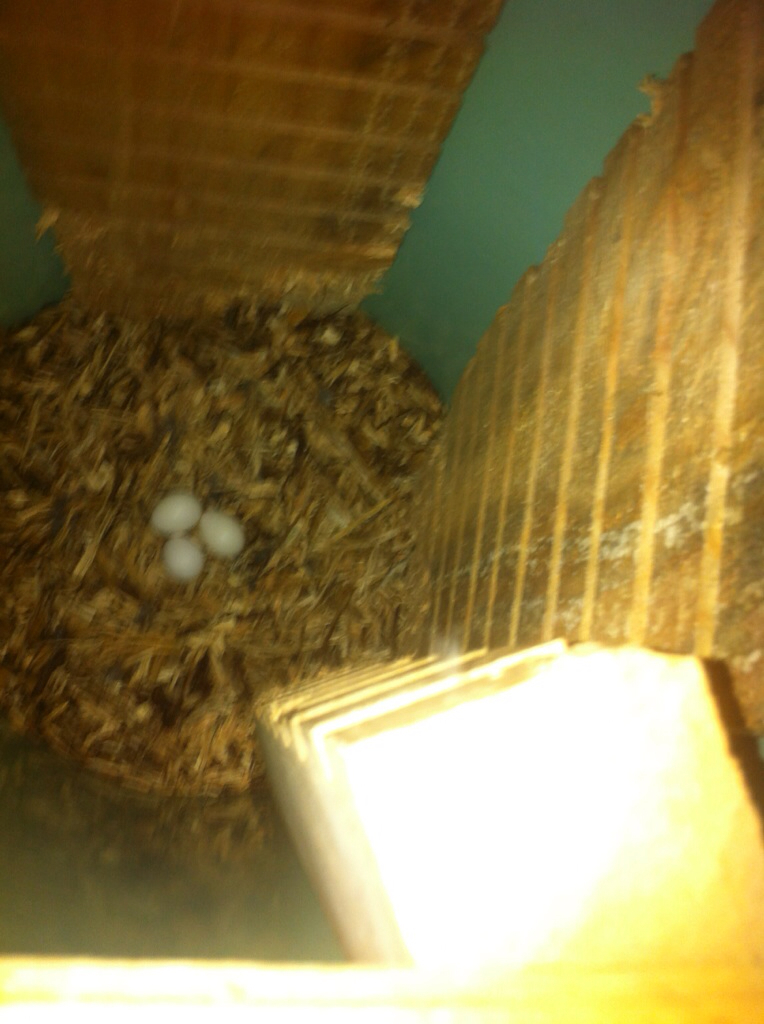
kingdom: Animalia
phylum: Chordata
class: Aves
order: Psittaciformes
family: Psittacidae
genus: Nestor
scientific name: Nestor meridionalis
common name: New zealand kaka
